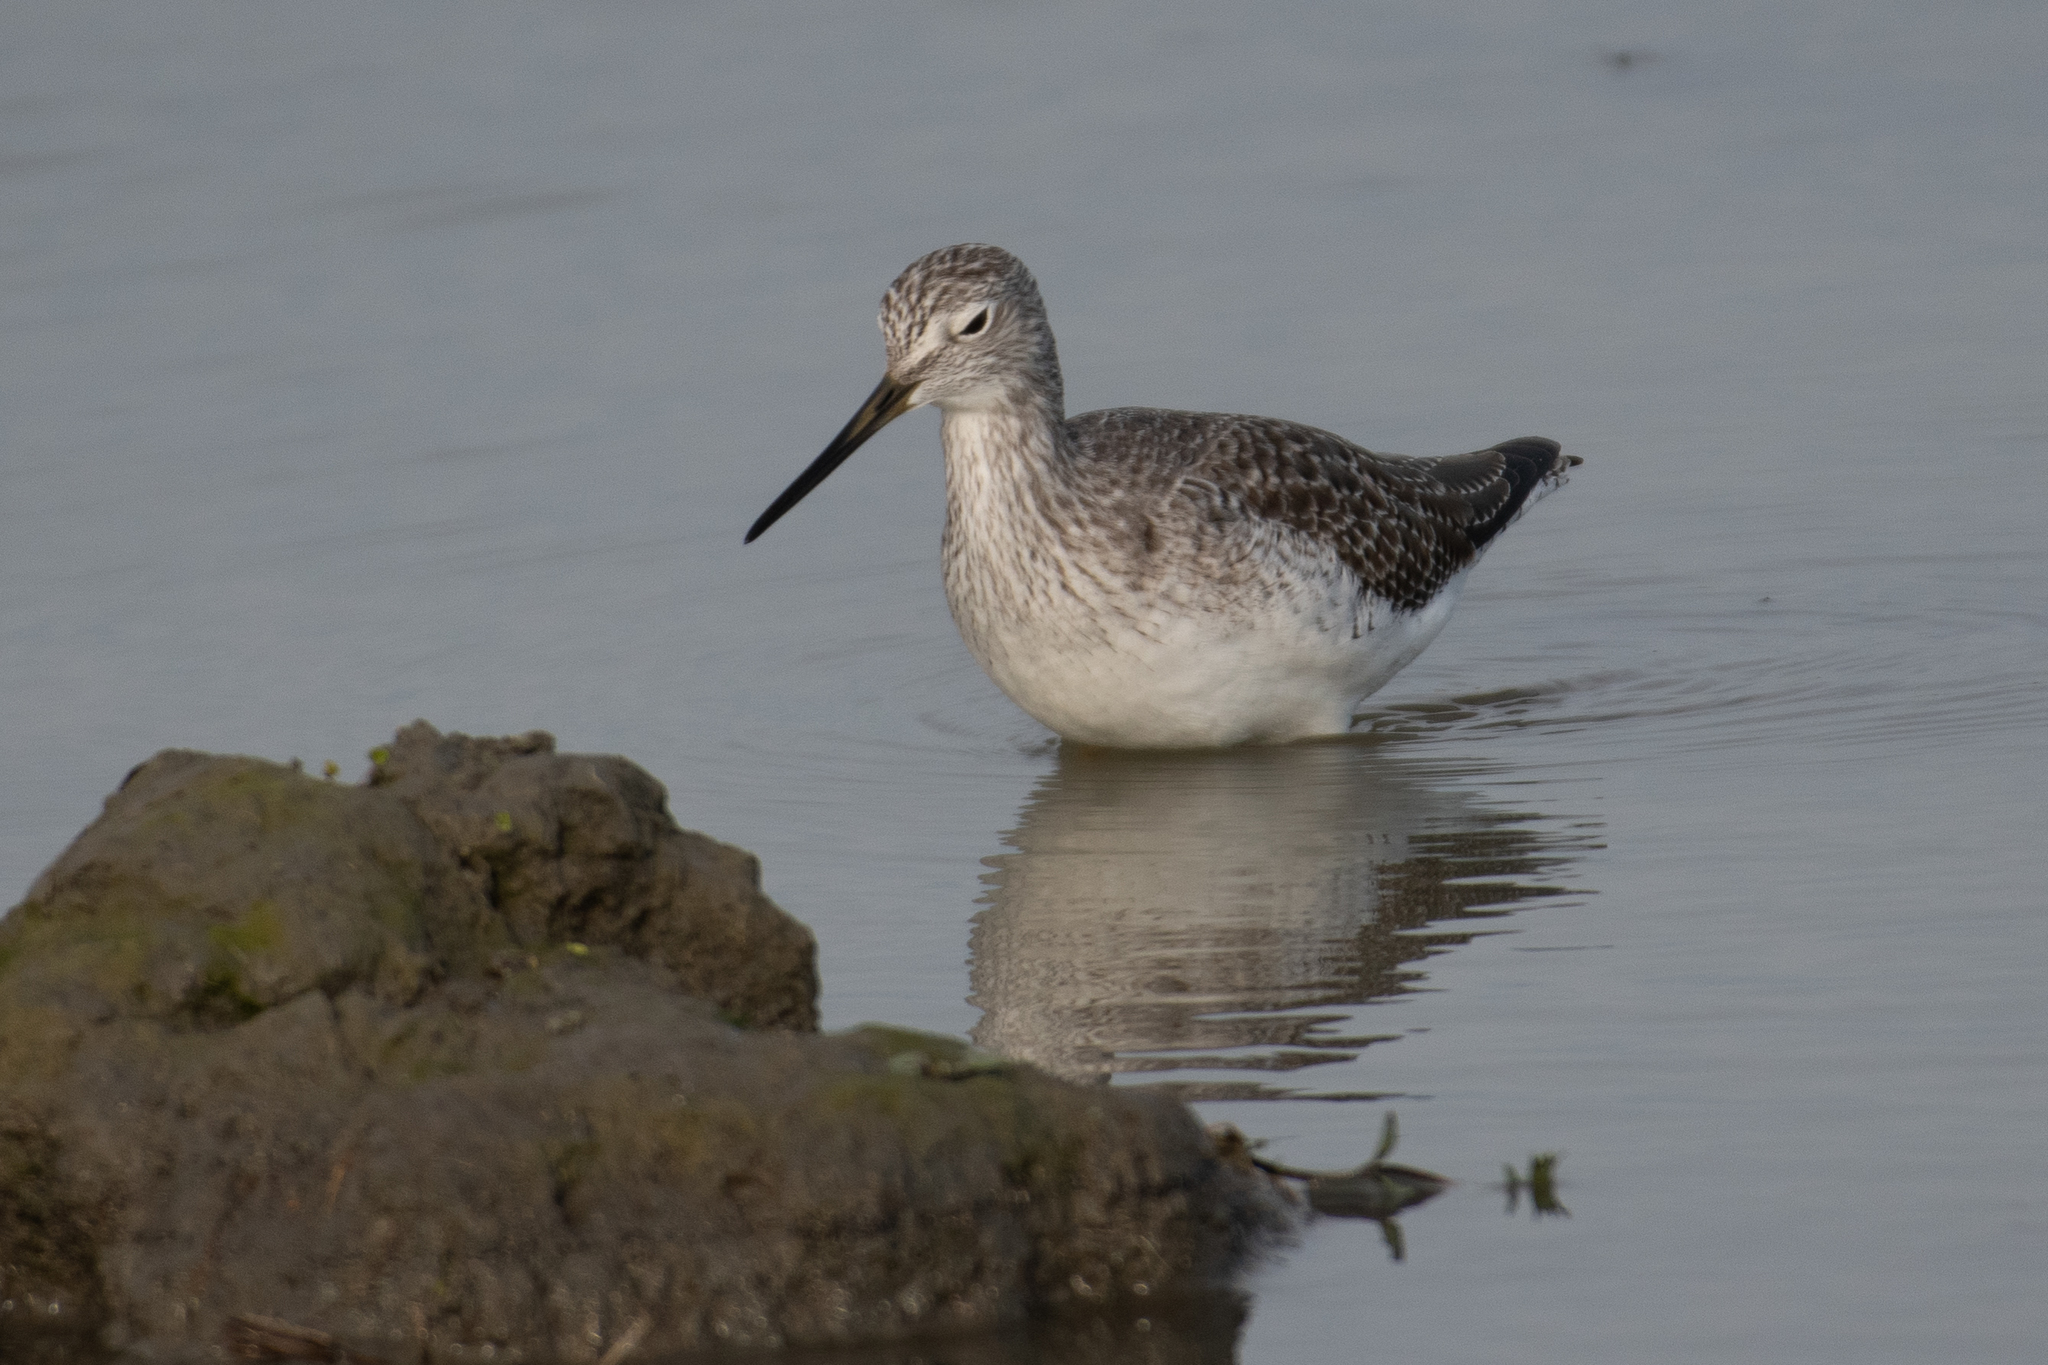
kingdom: Animalia
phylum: Chordata
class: Aves
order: Charadriiformes
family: Scolopacidae
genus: Tringa
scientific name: Tringa melanoleuca
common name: Greater yellowlegs
